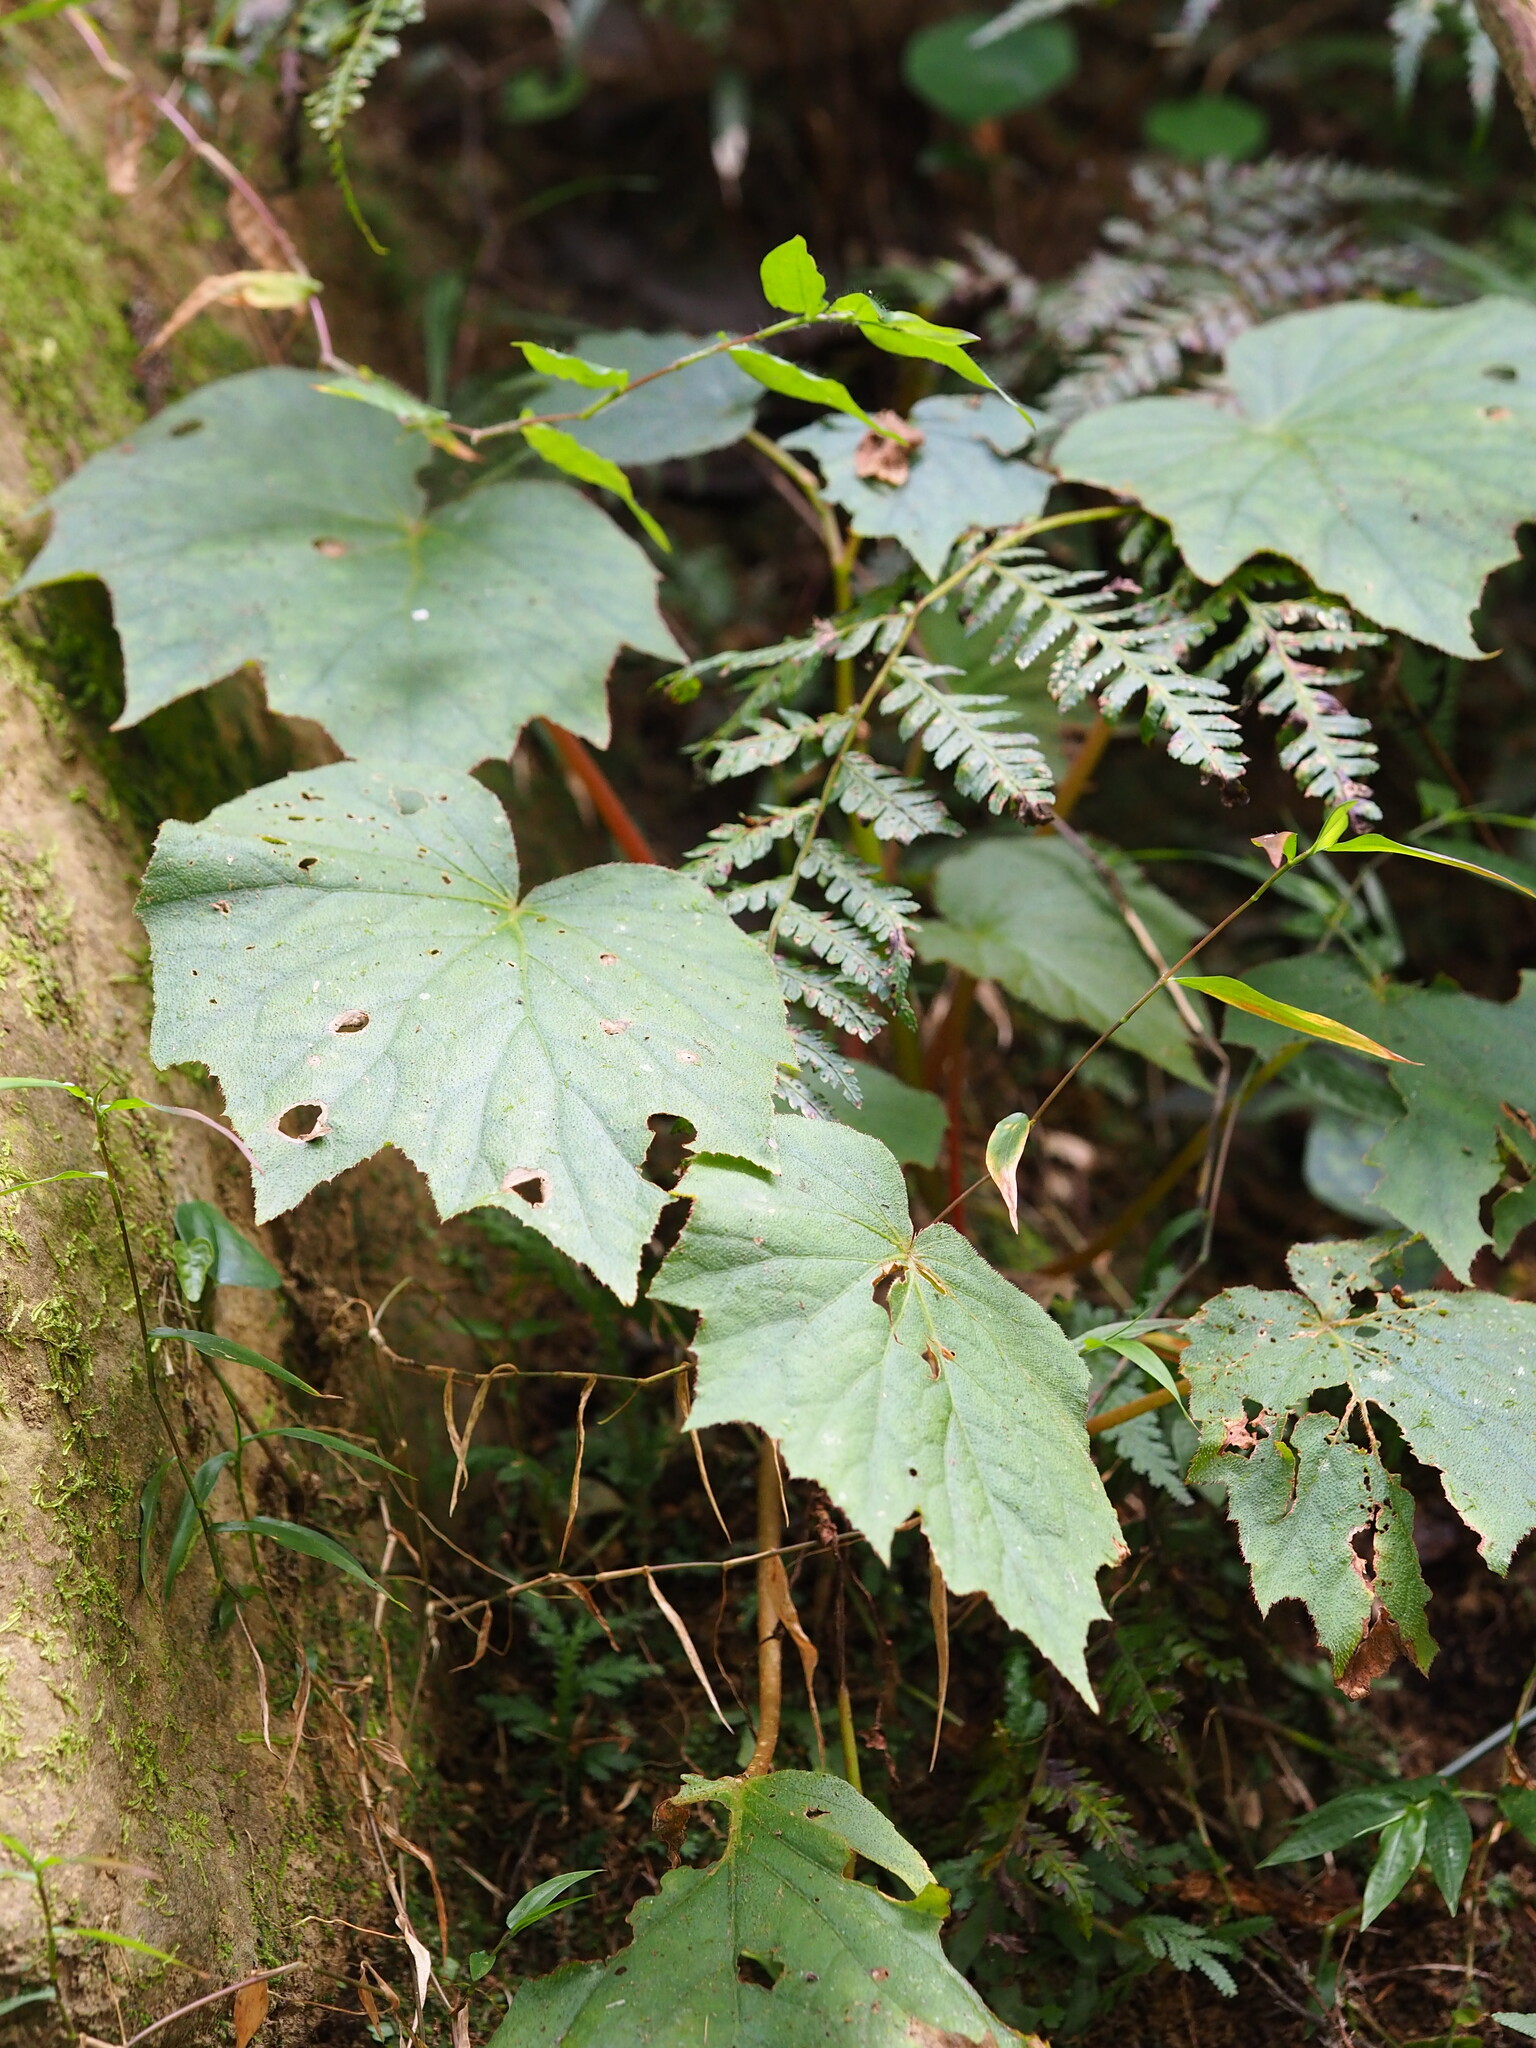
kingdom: Plantae
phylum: Tracheophyta
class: Magnoliopsida
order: Cucurbitales
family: Begoniaceae
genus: Begonia
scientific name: Begonia palmata
